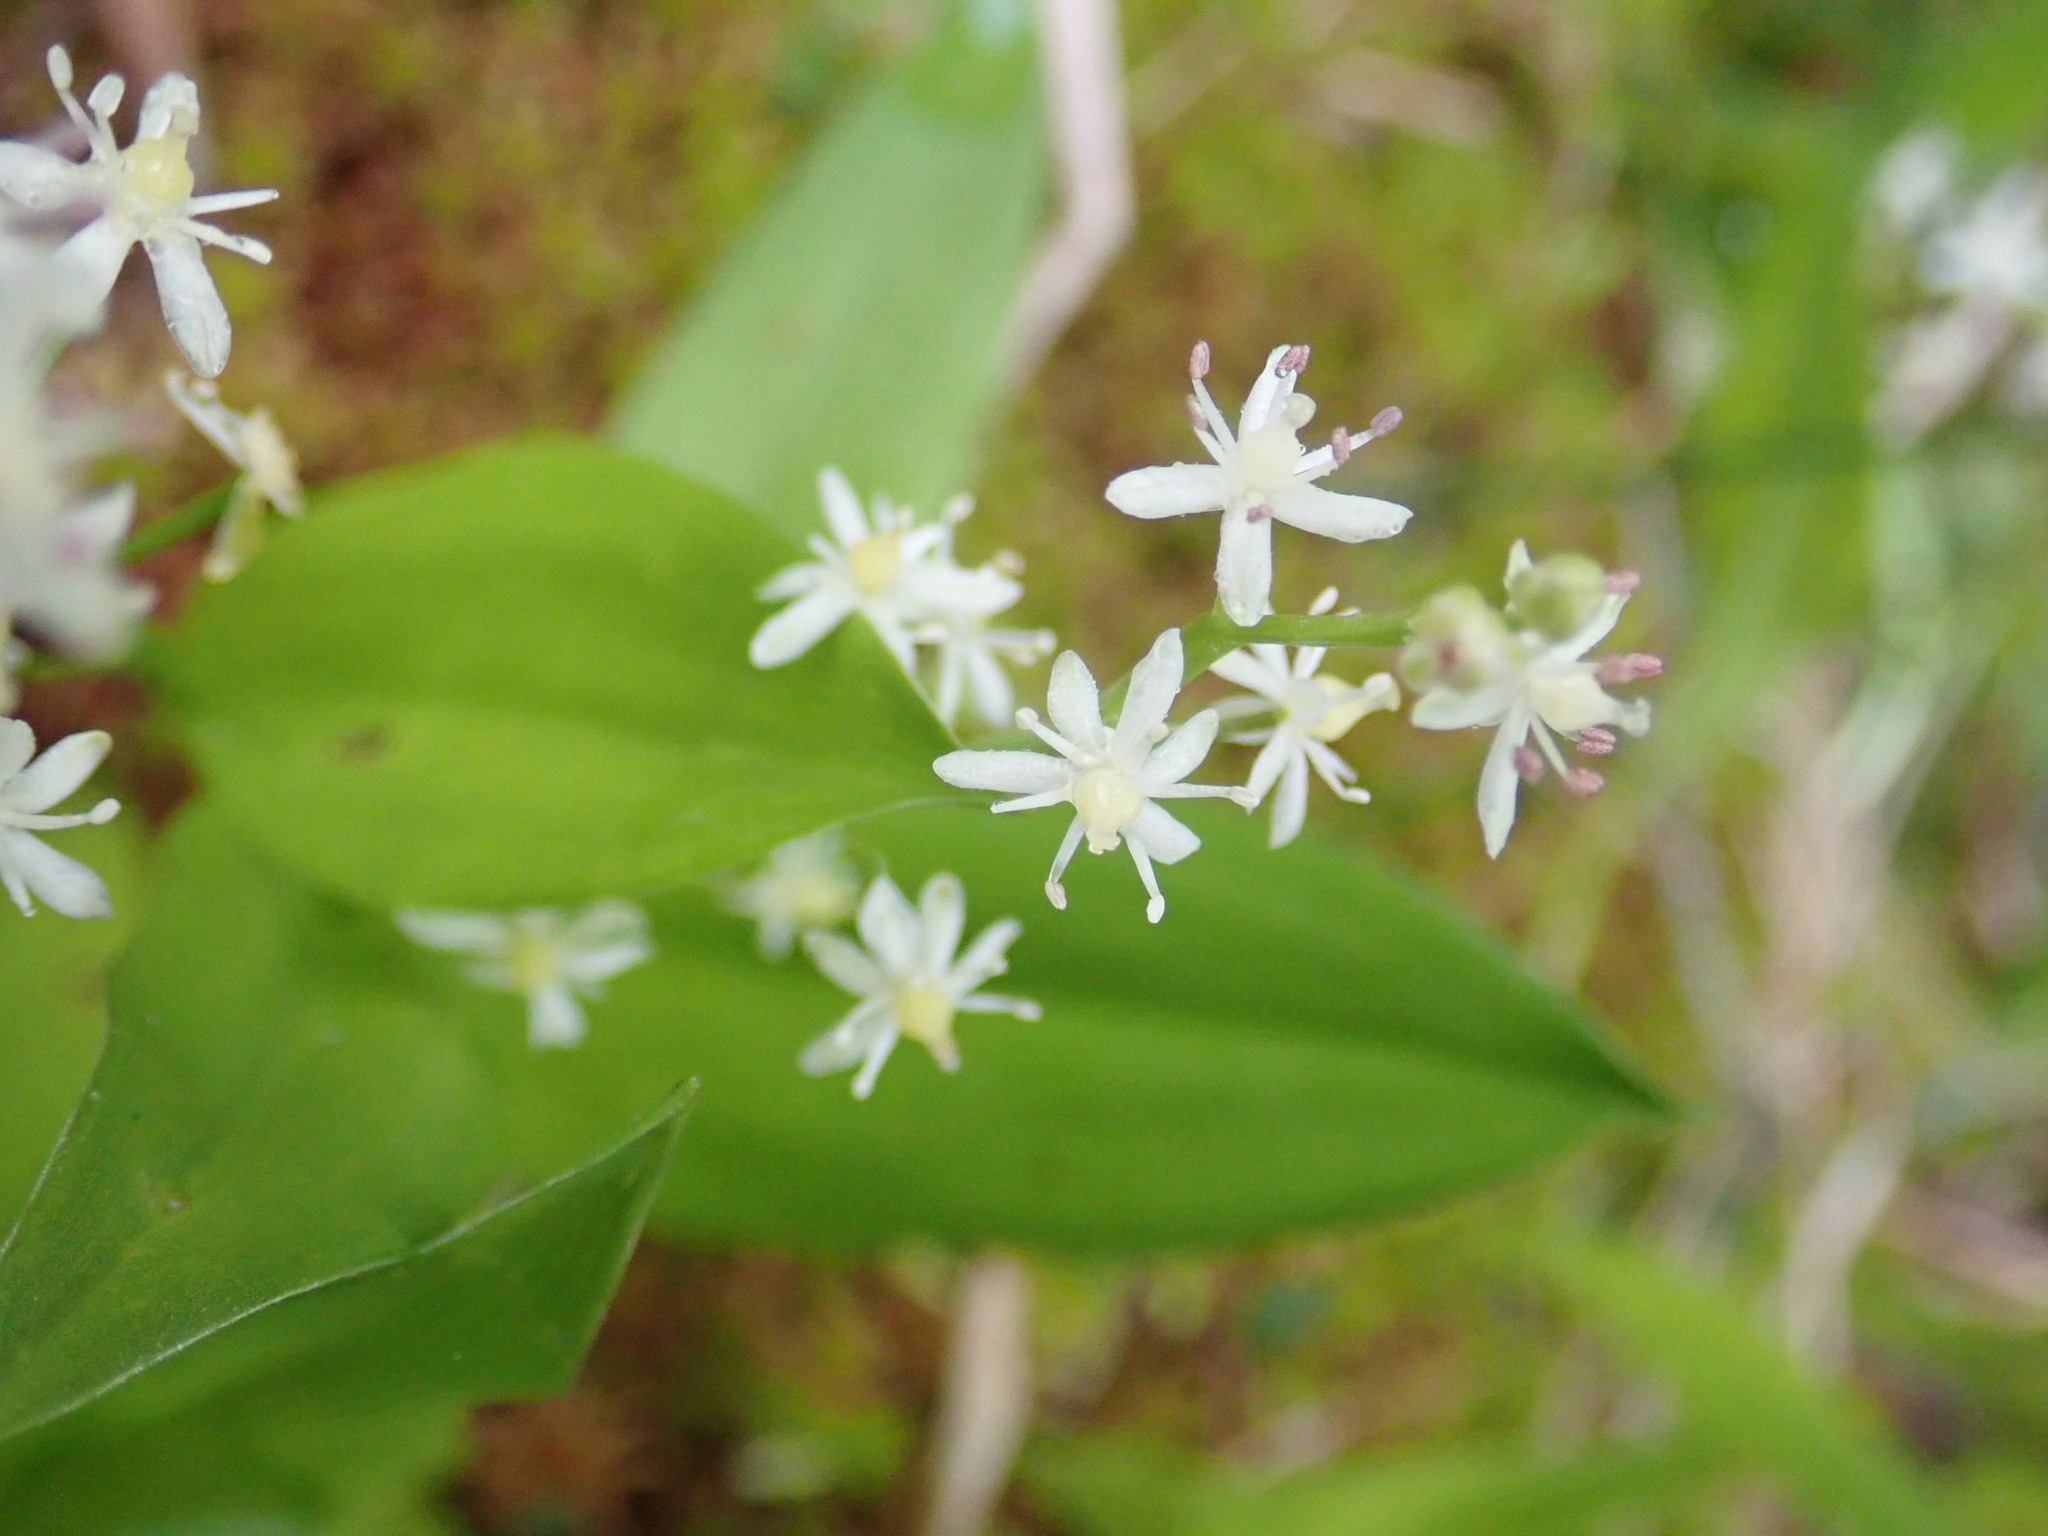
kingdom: Plantae
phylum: Tracheophyta
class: Liliopsida
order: Asparagales
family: Asparagaceae
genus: Maianthemum
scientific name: Maianthemum trifolium
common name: Swamp false solomon's seal
